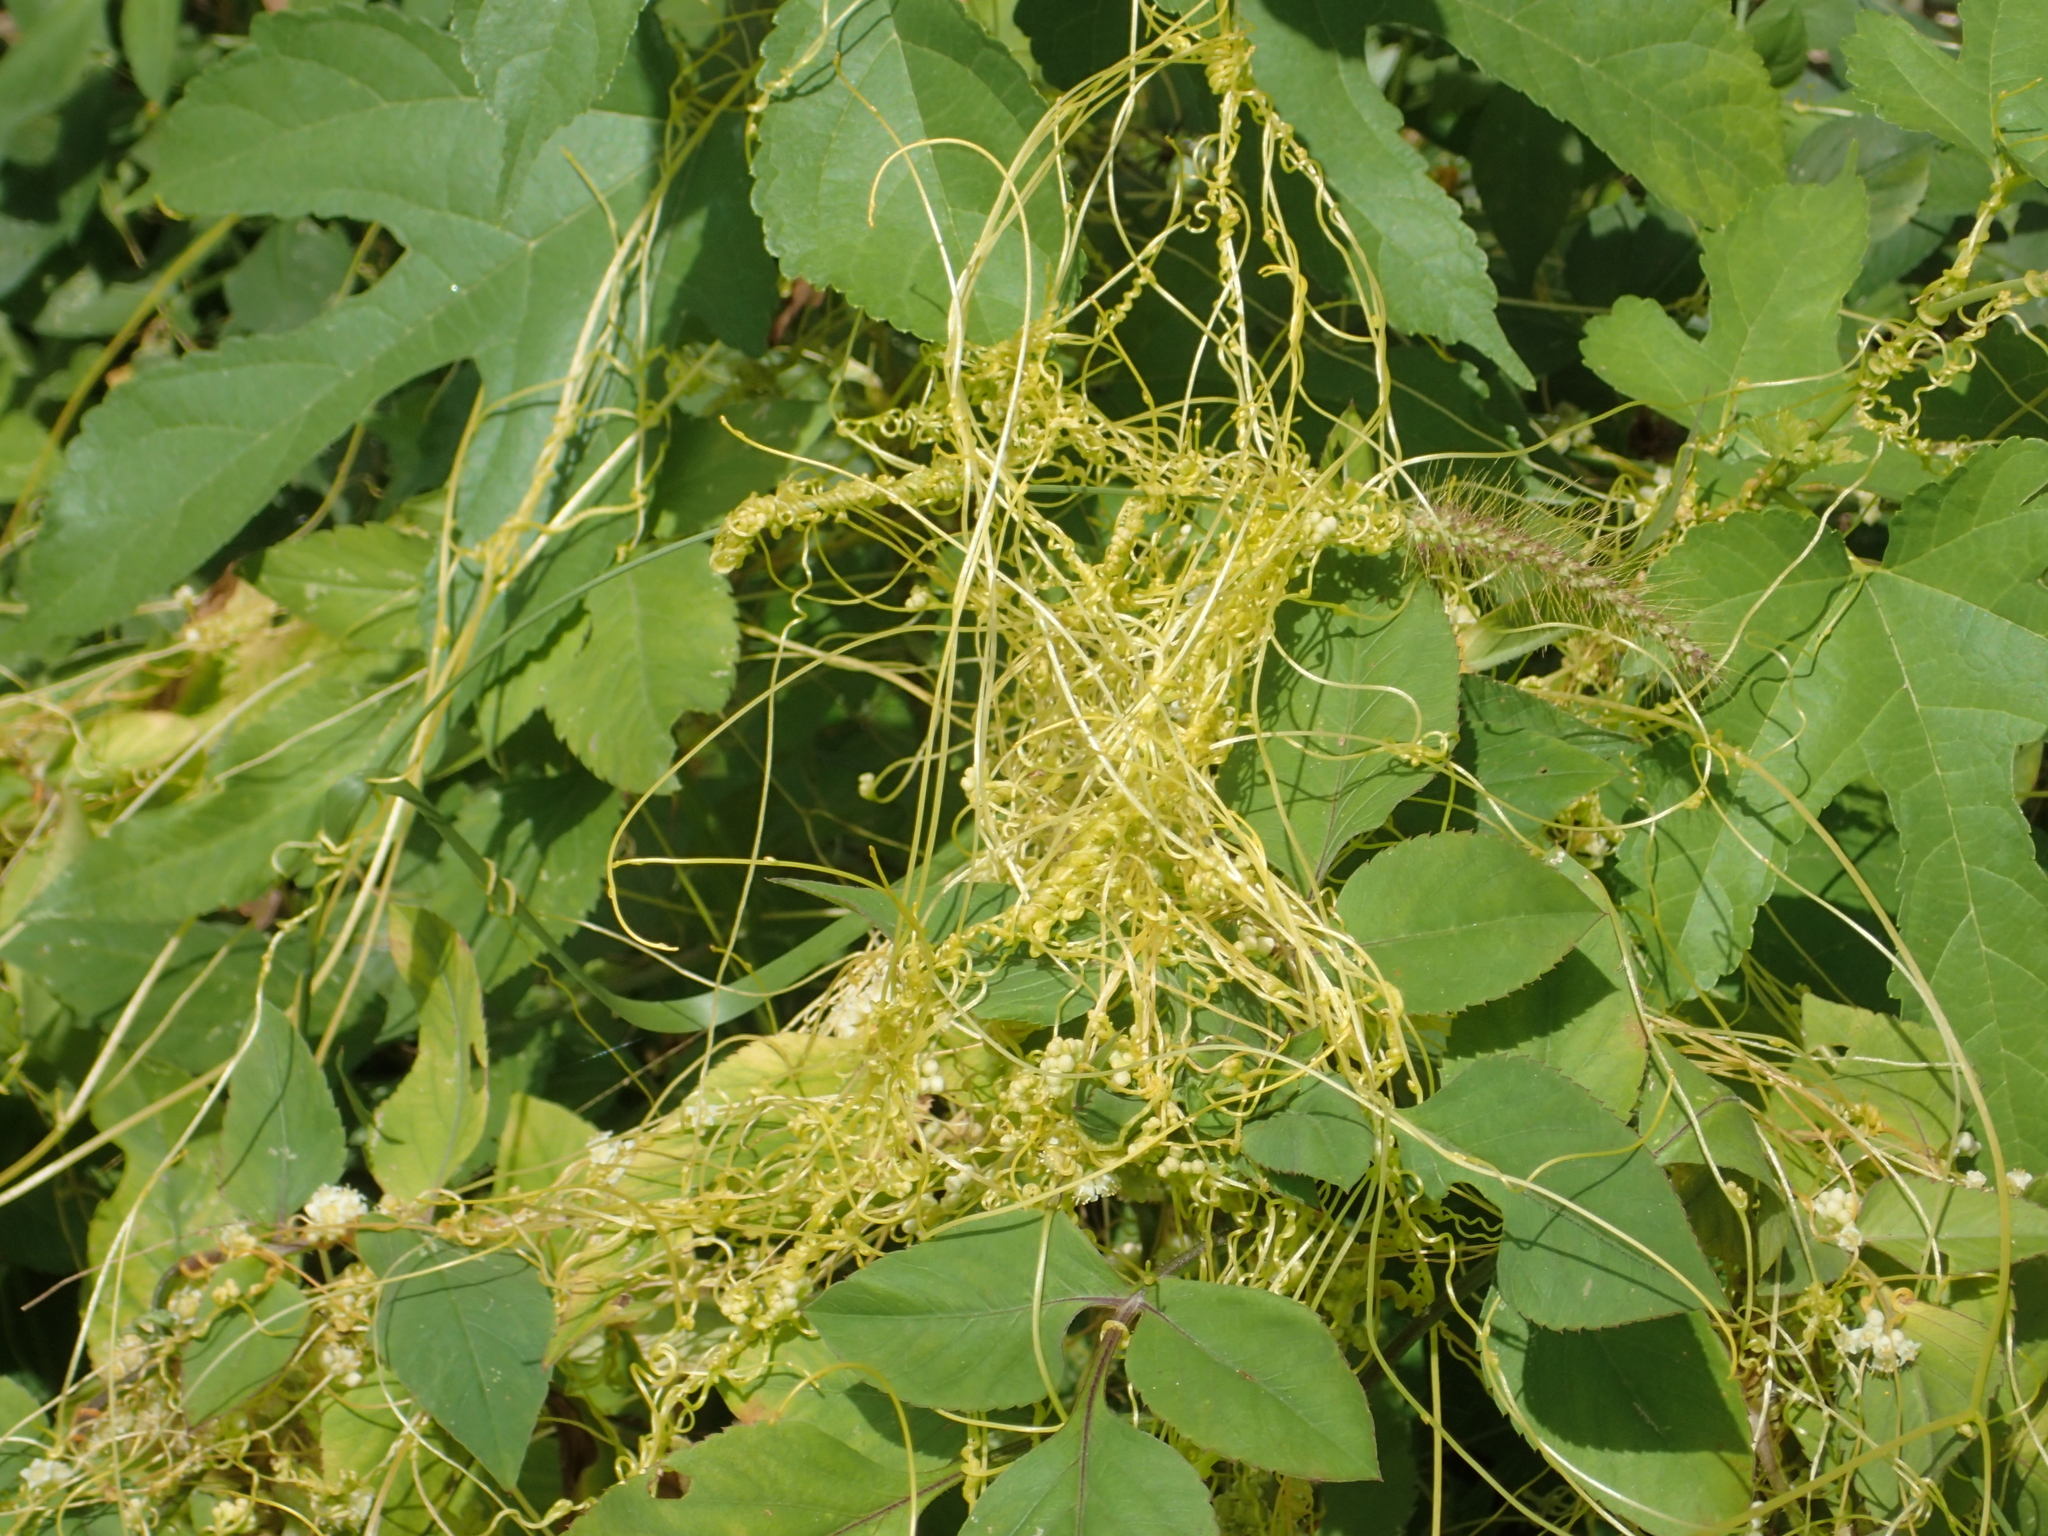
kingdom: Plantae
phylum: Tracheophyta
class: Magnoliopsida
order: Solanales
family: Convolvulaceae
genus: Cuscuta
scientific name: Cuscuta campestris
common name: Yellow dodder
